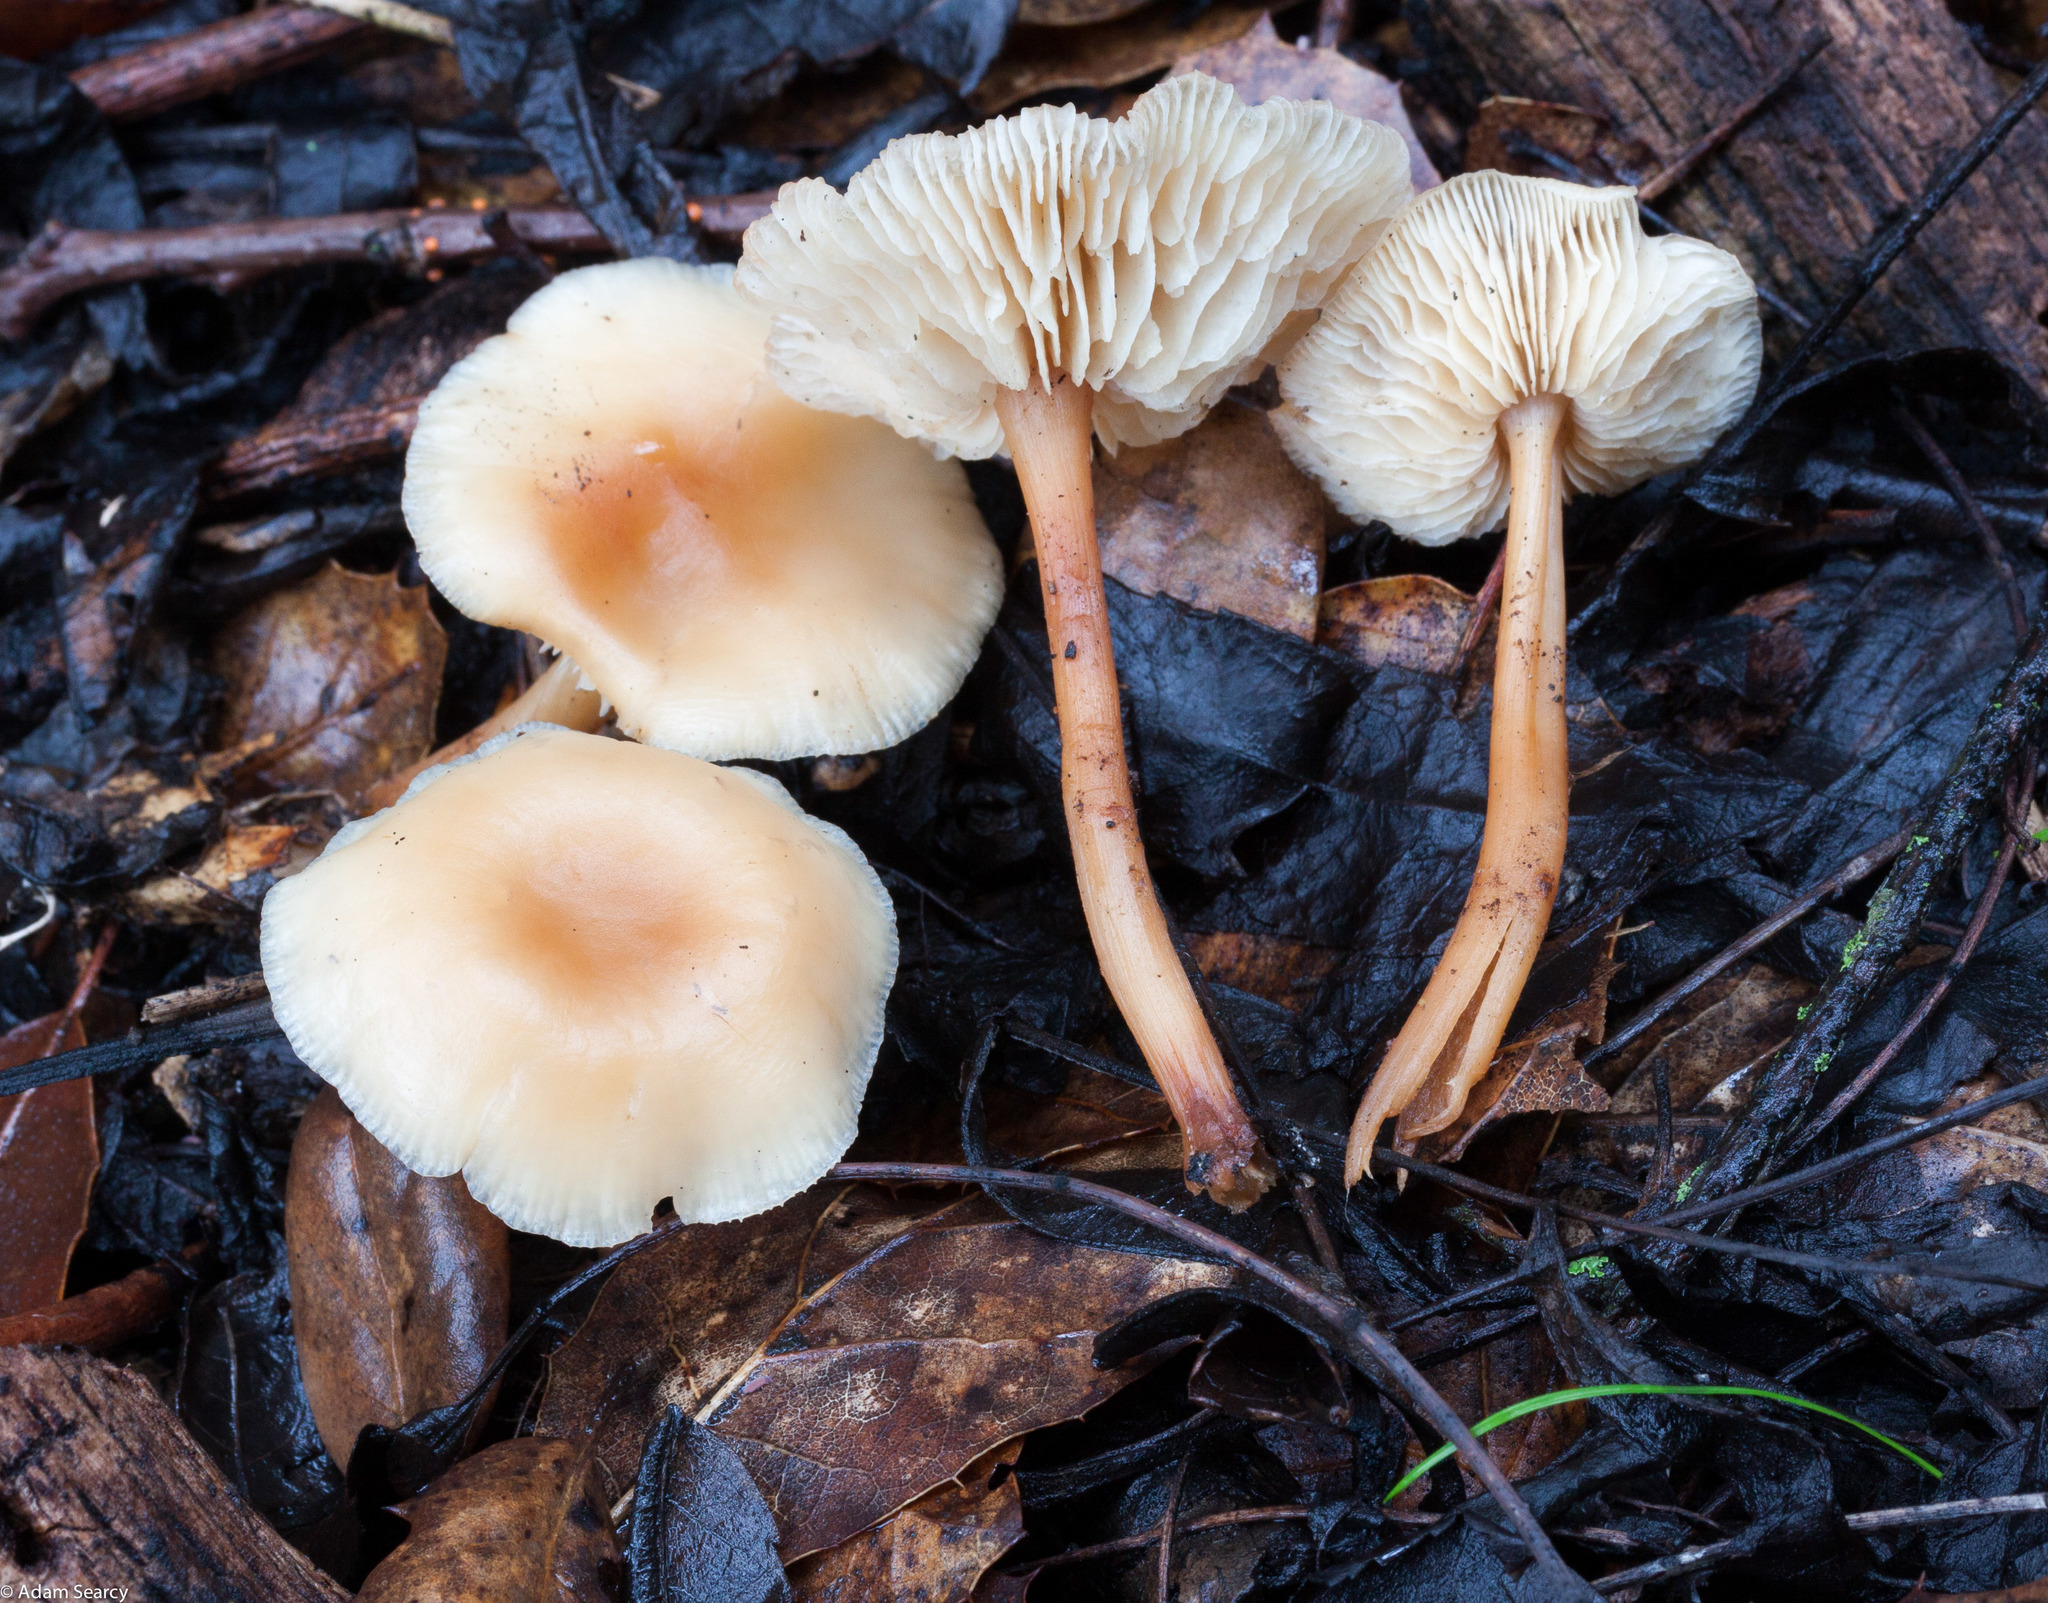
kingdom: Fungi
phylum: Basidiomycota
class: Agaricomycetes
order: Agaricales
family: Omphalotaceae
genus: Gymnopus
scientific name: Gymnopus dryophilus
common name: Penny top
